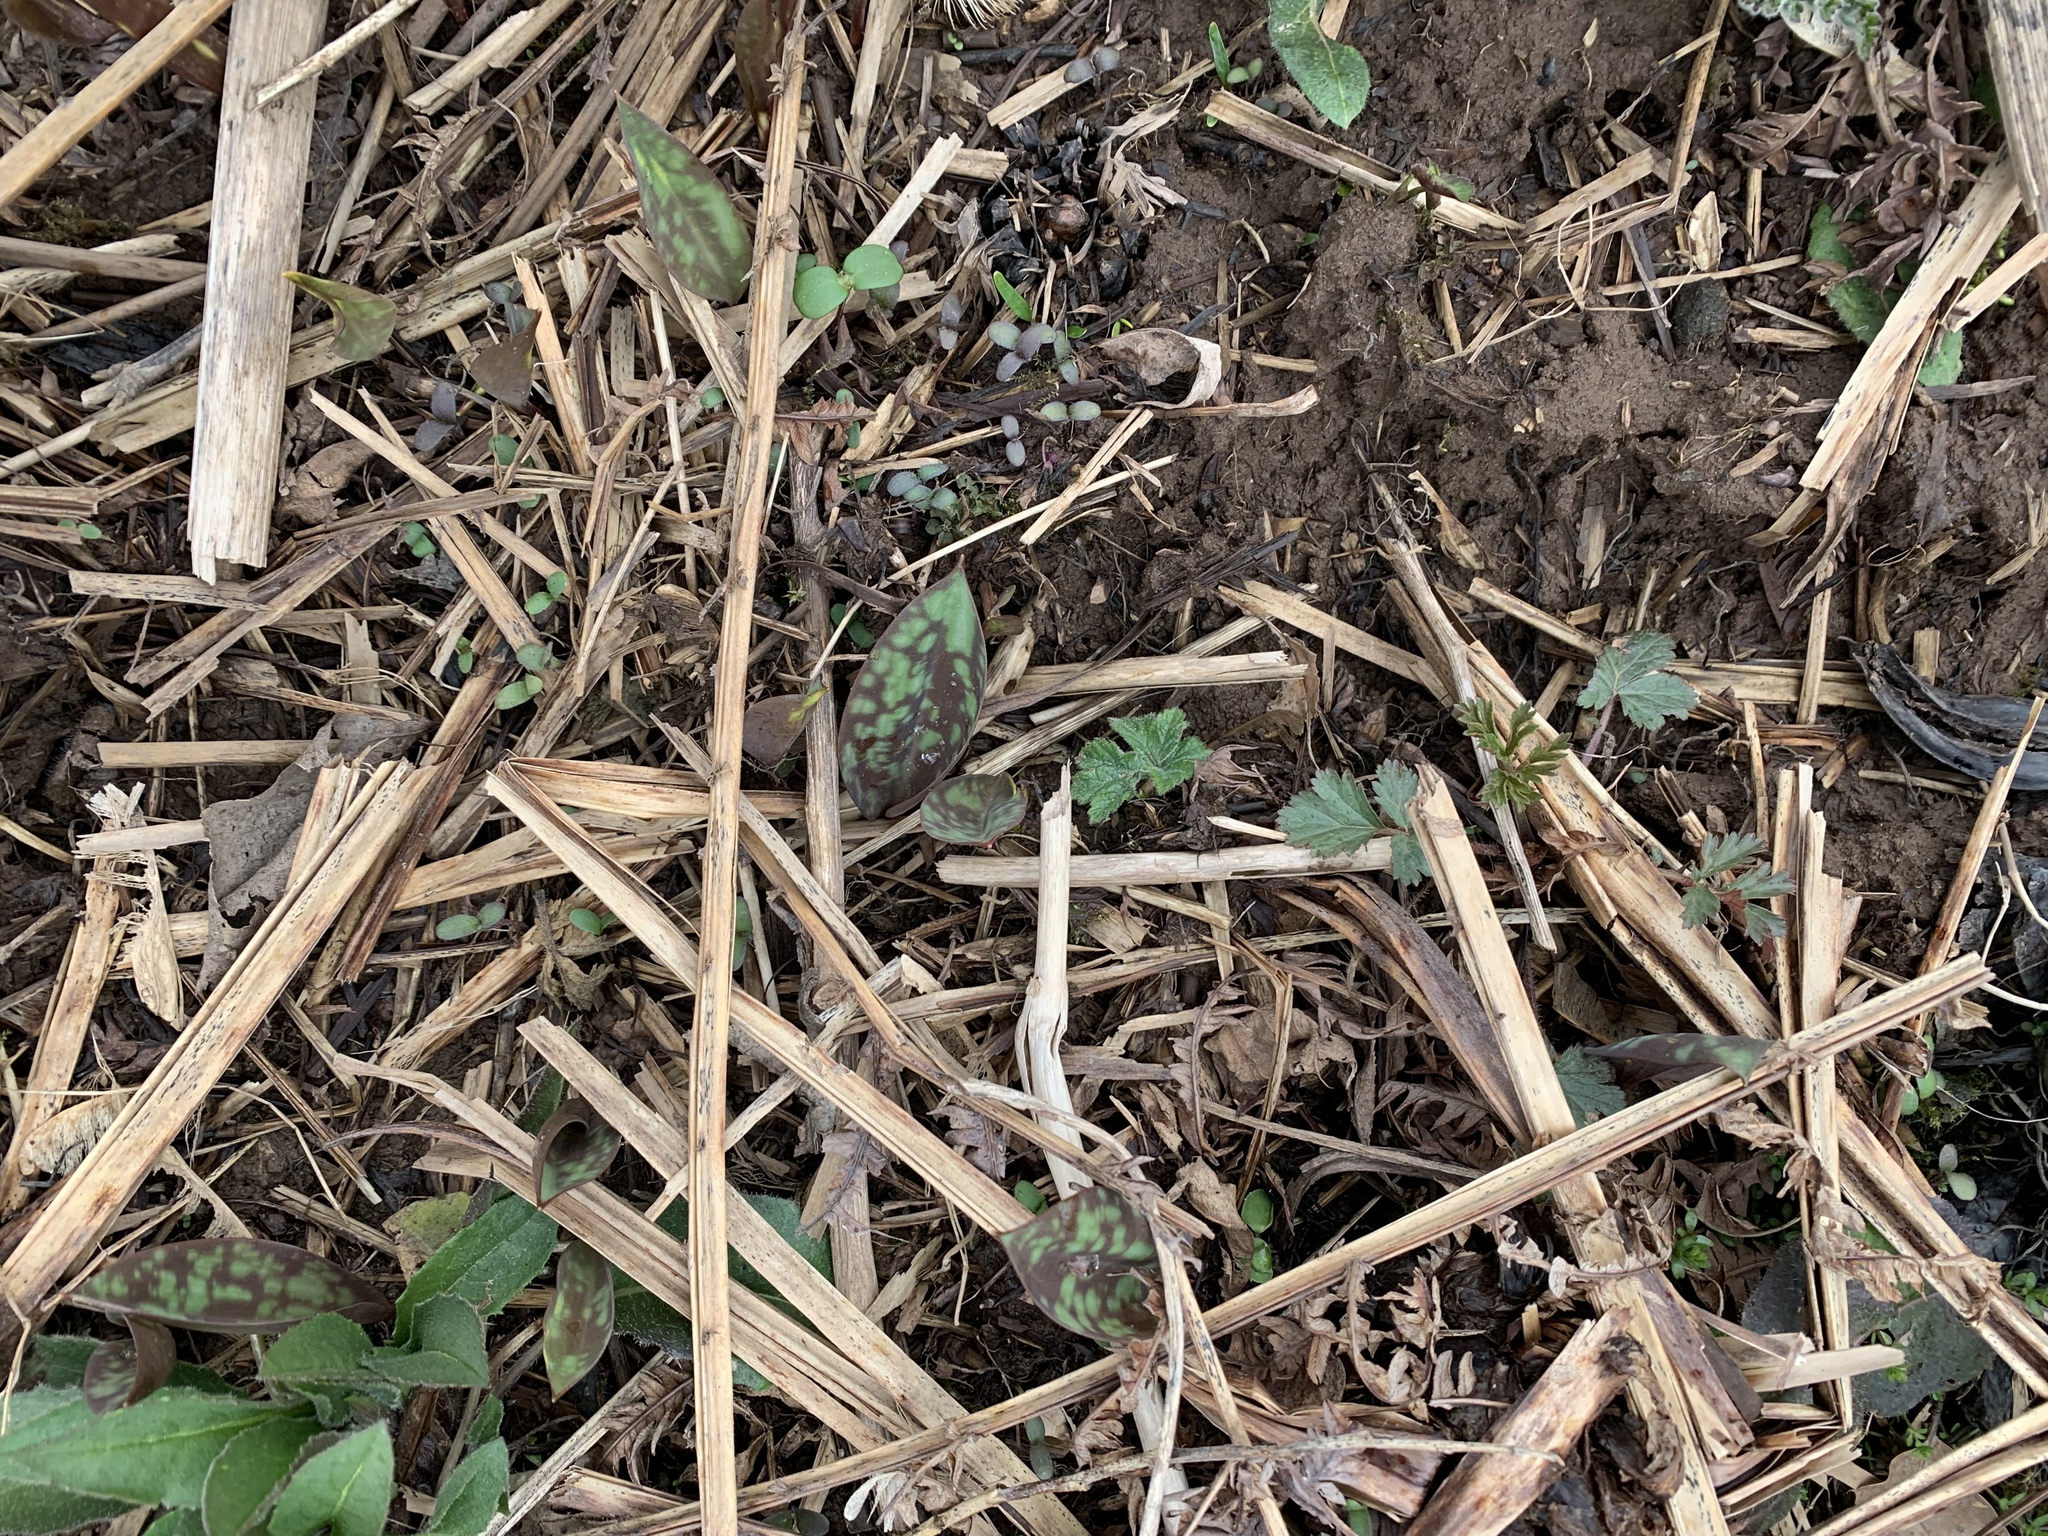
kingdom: Plantae
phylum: Tracheophyta
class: Liliopsida
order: Liliales
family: Liliaceae
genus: Erythronium
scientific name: Erythronium americanum
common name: Yellow adder's-tongue
